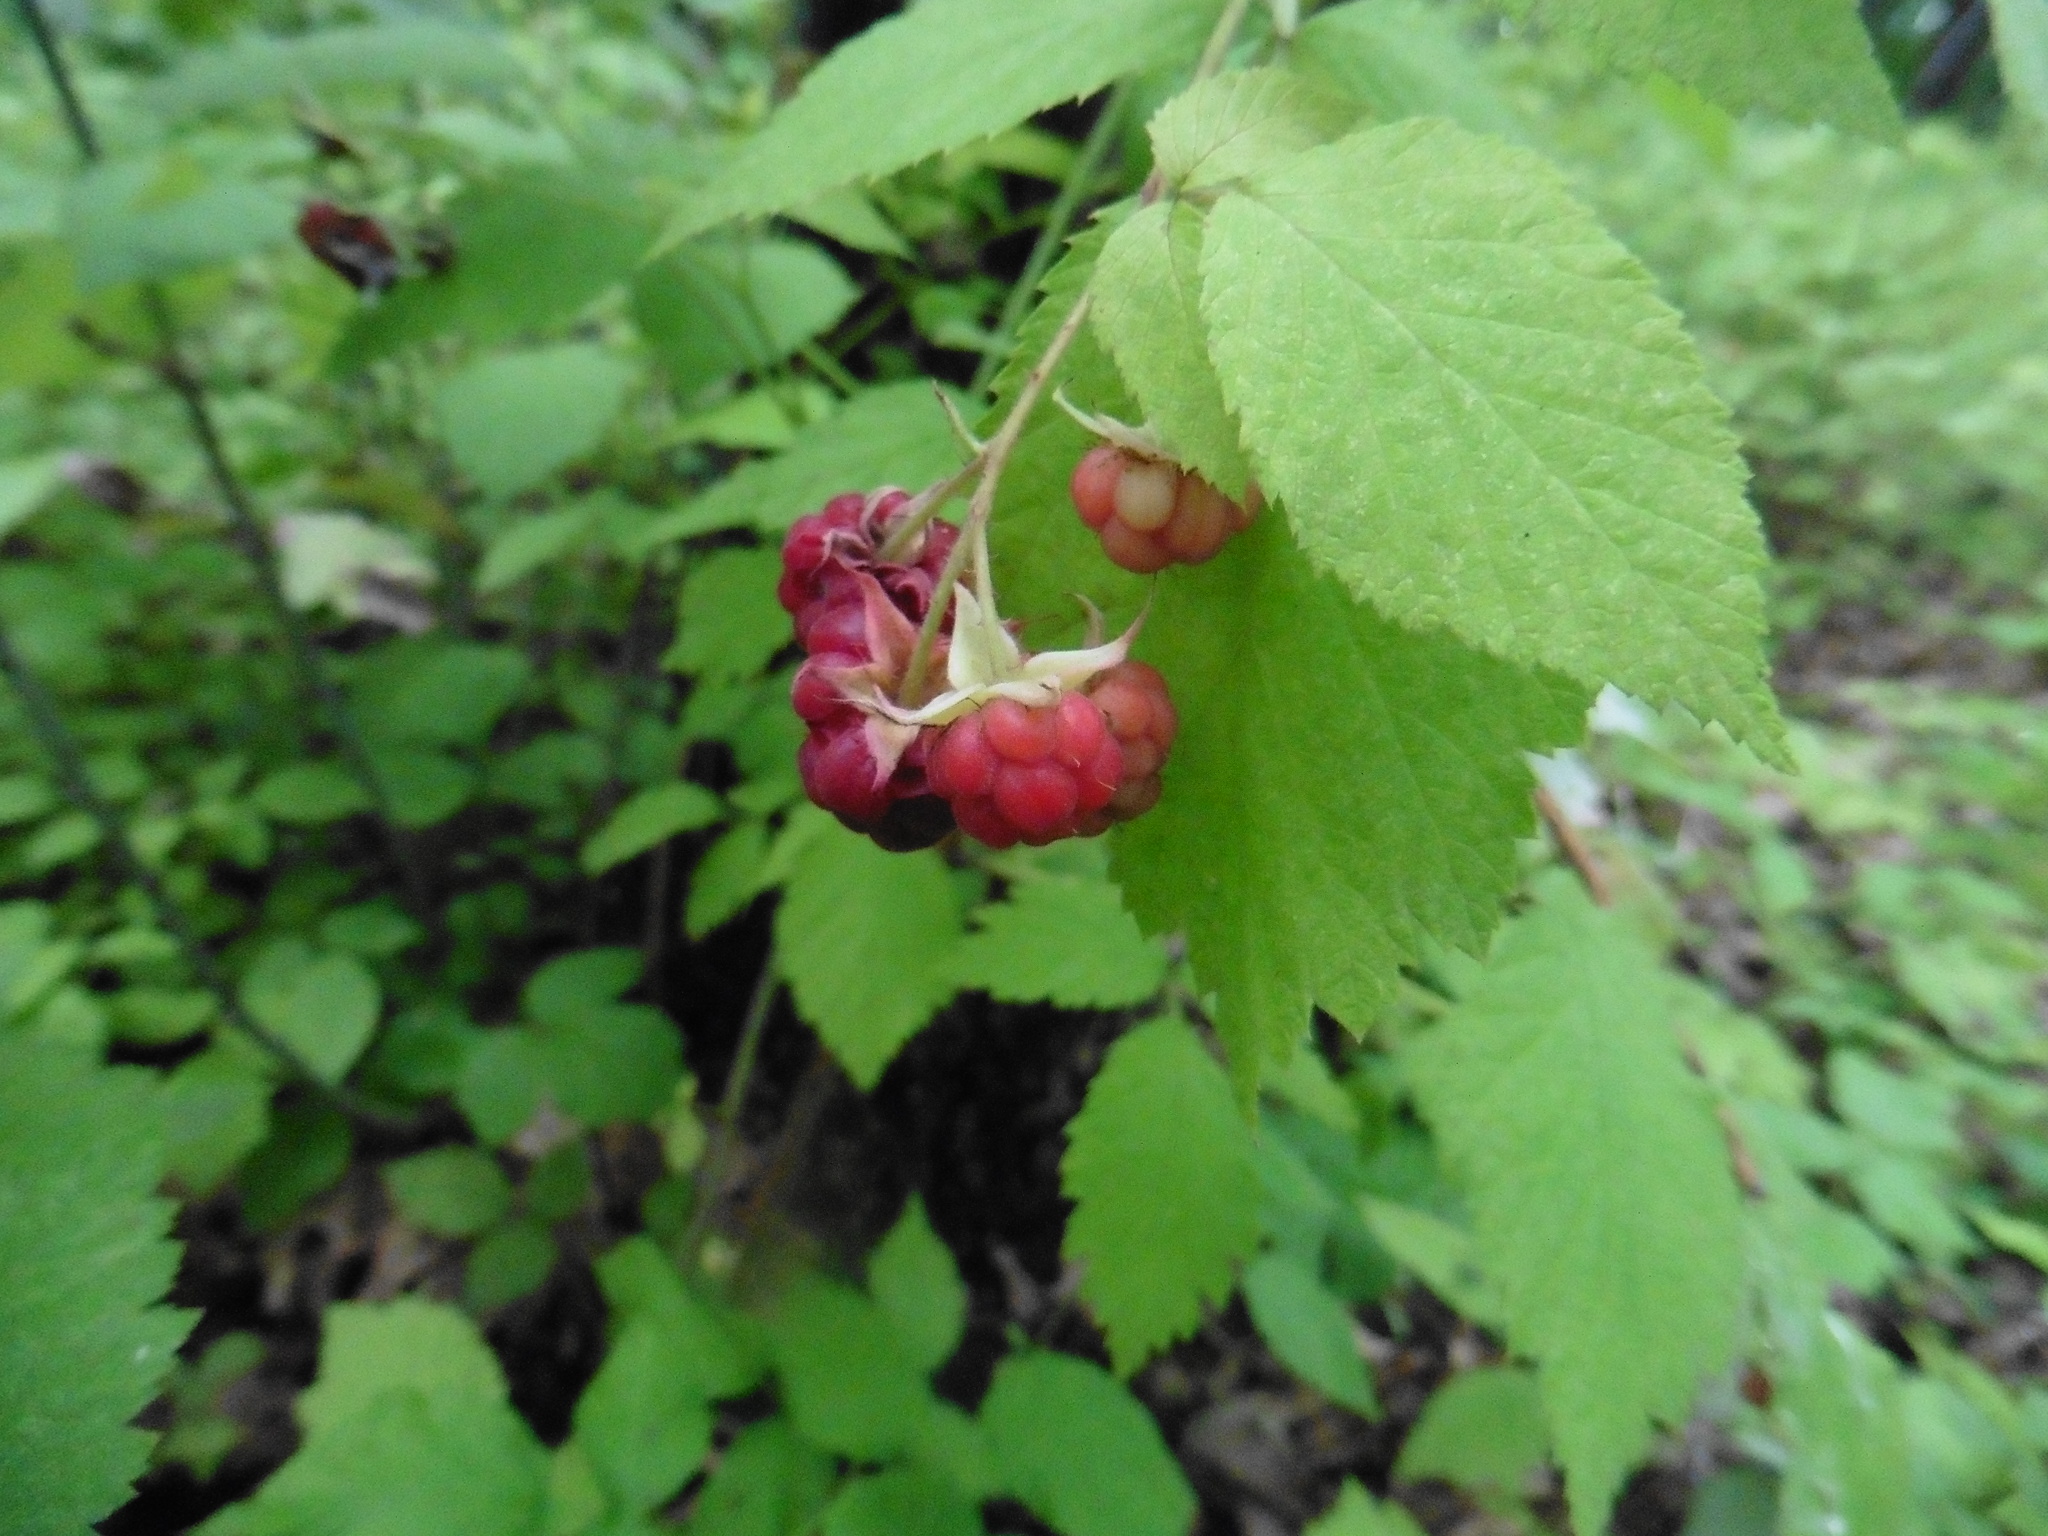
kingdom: Plantae
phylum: Tracheophyta
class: Magnoliopsida
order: Rosales
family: Rosaceae
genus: Rubus
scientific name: Rubus idaeus
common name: Raspberry
